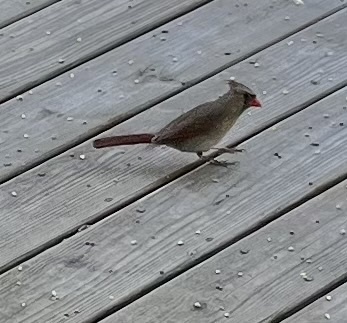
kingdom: Animalia
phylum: Chordata
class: Aves
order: Passeriformes
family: Cardinalidae
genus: Cardinalis
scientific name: Cardinalis cardinalis
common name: Northern cardinal
